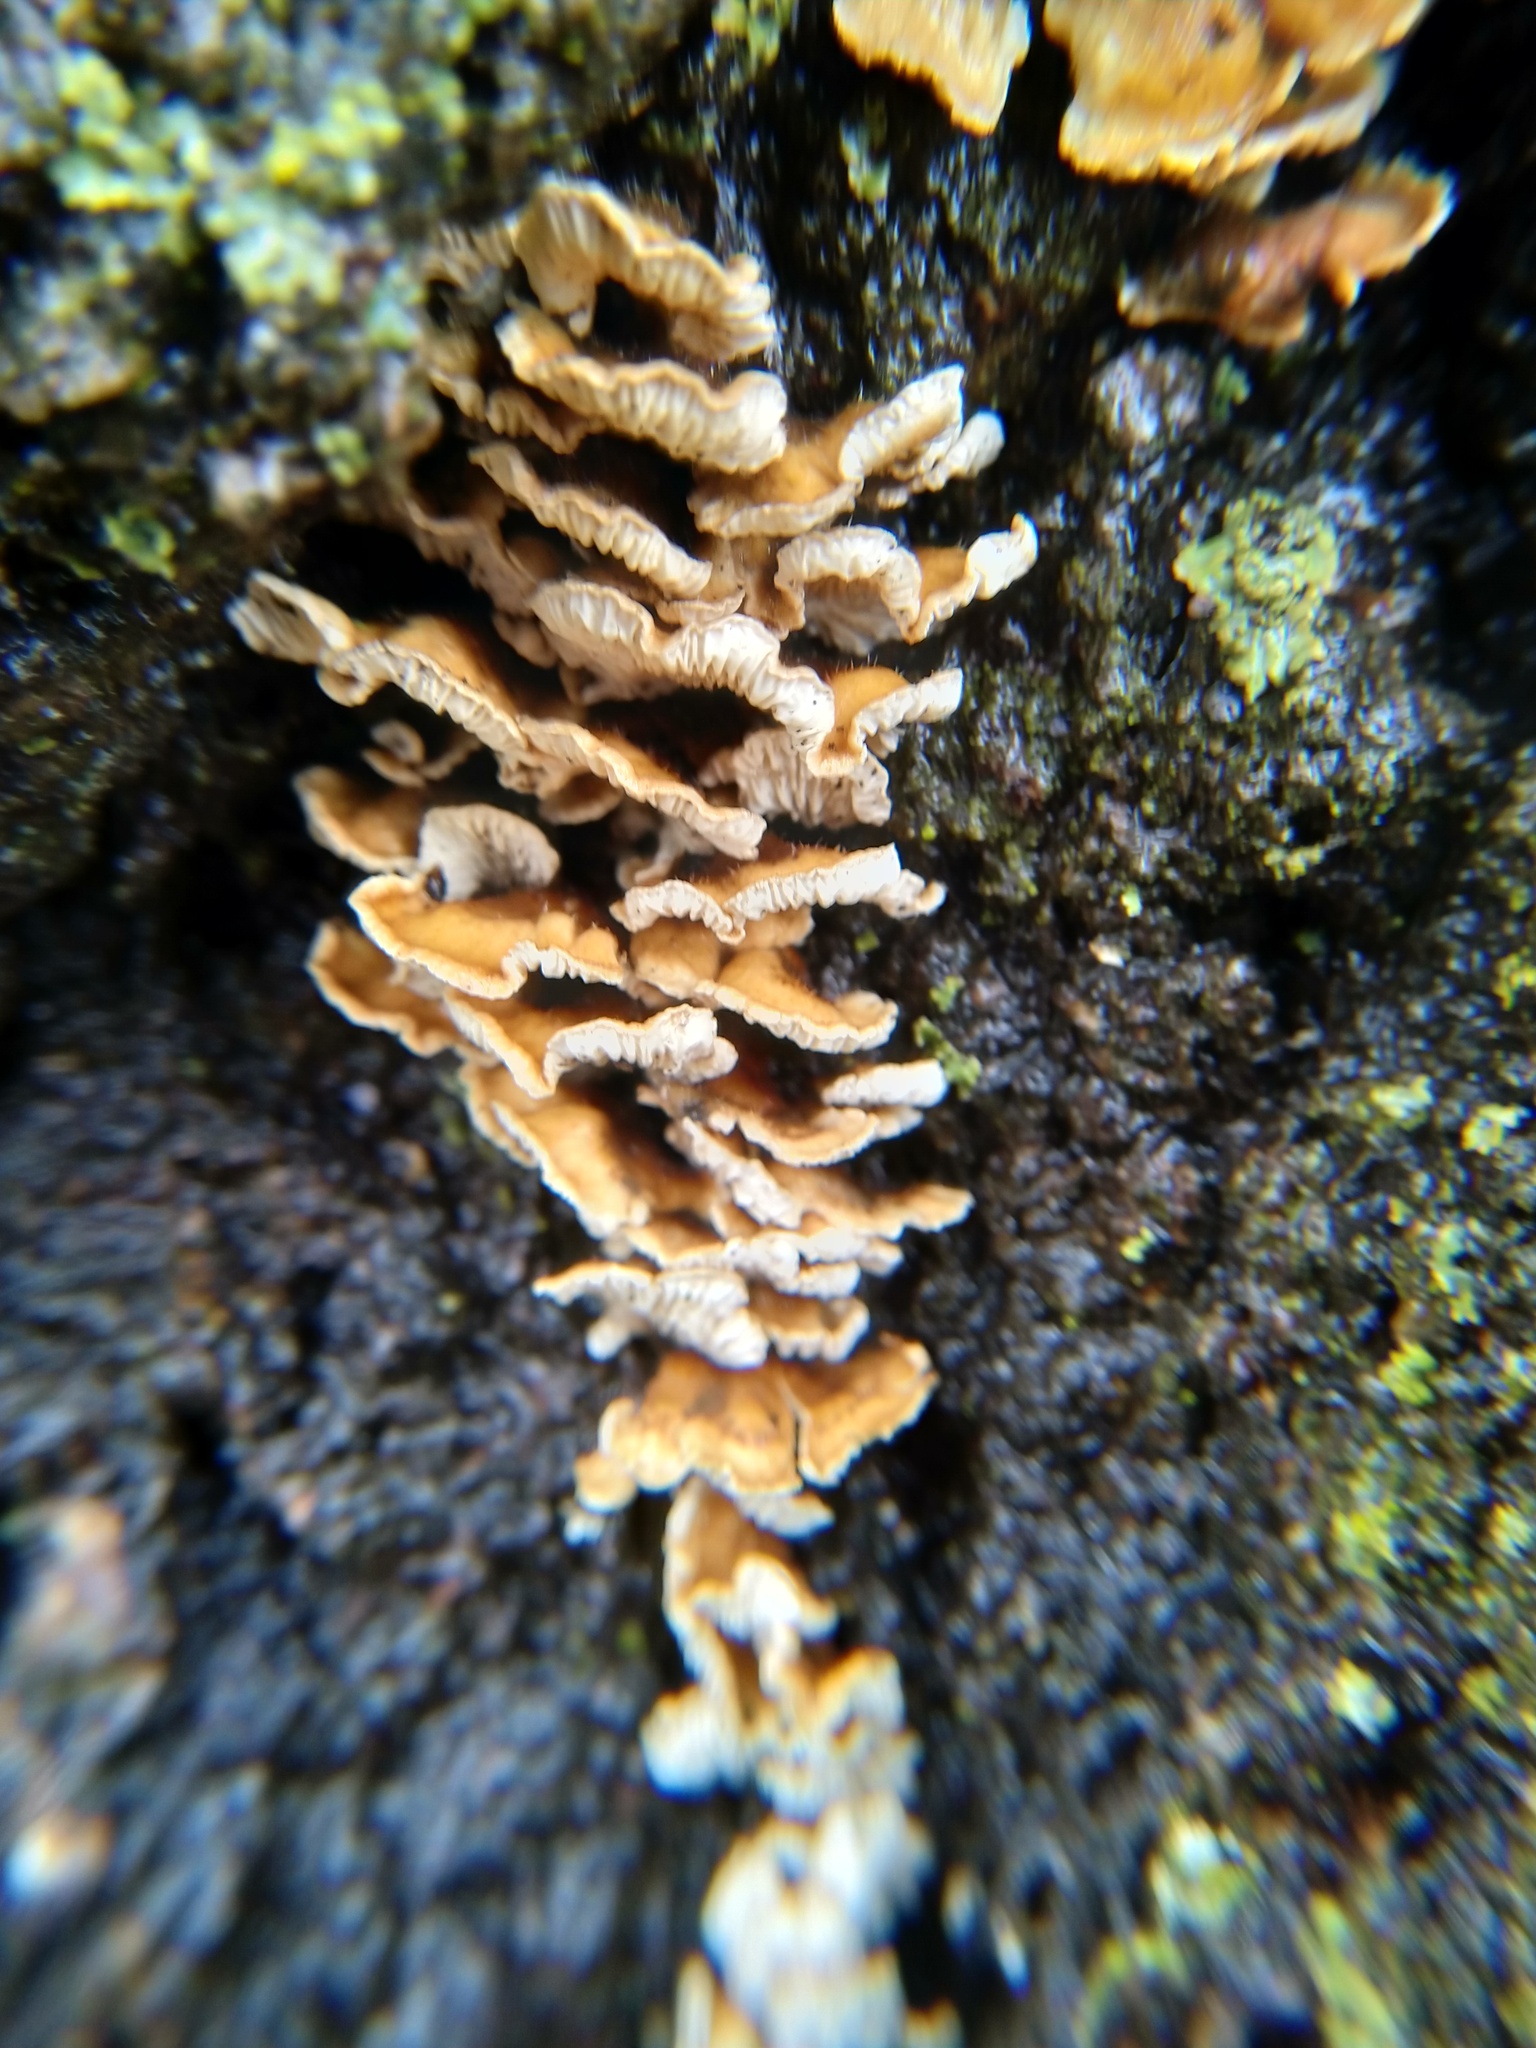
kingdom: Fungi
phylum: Basidiomycota
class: Agaricomycetes
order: Amylocorticiales
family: Amylocorticiaceae
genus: Plicaturopsis
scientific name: Plicaturopsis crispa
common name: Crimped gill
